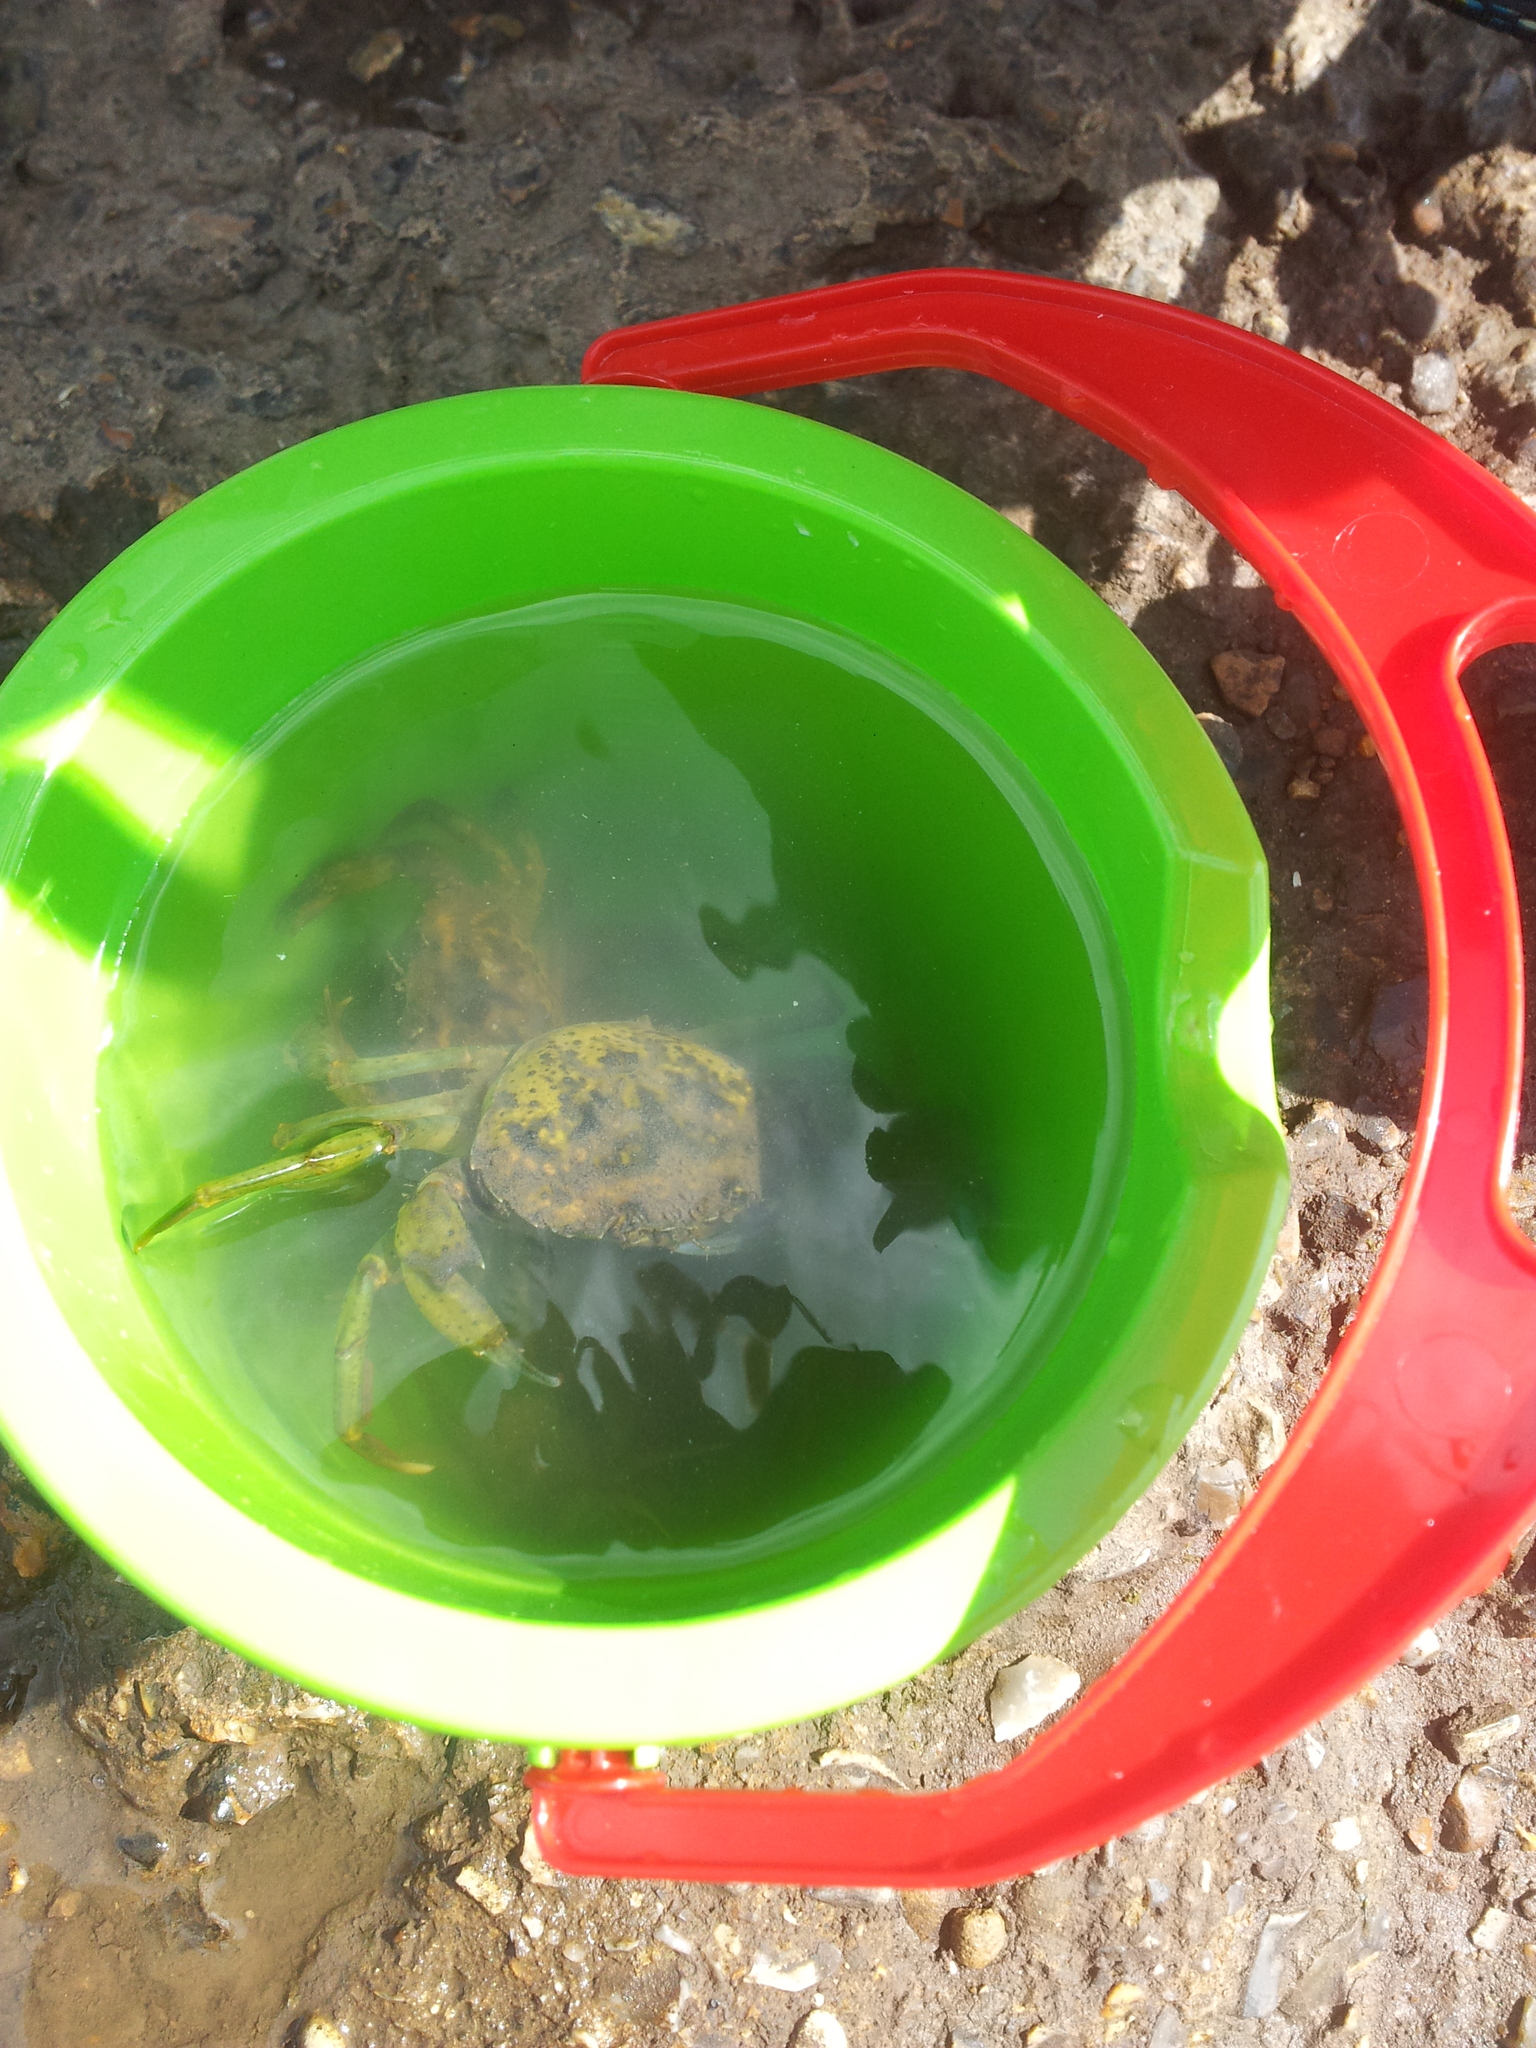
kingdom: Animalia
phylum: Arthropoda
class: Malacostraca
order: Decapoda
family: Carcinidae
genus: Carcinus
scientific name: Carcinus maenas
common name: European green crab
